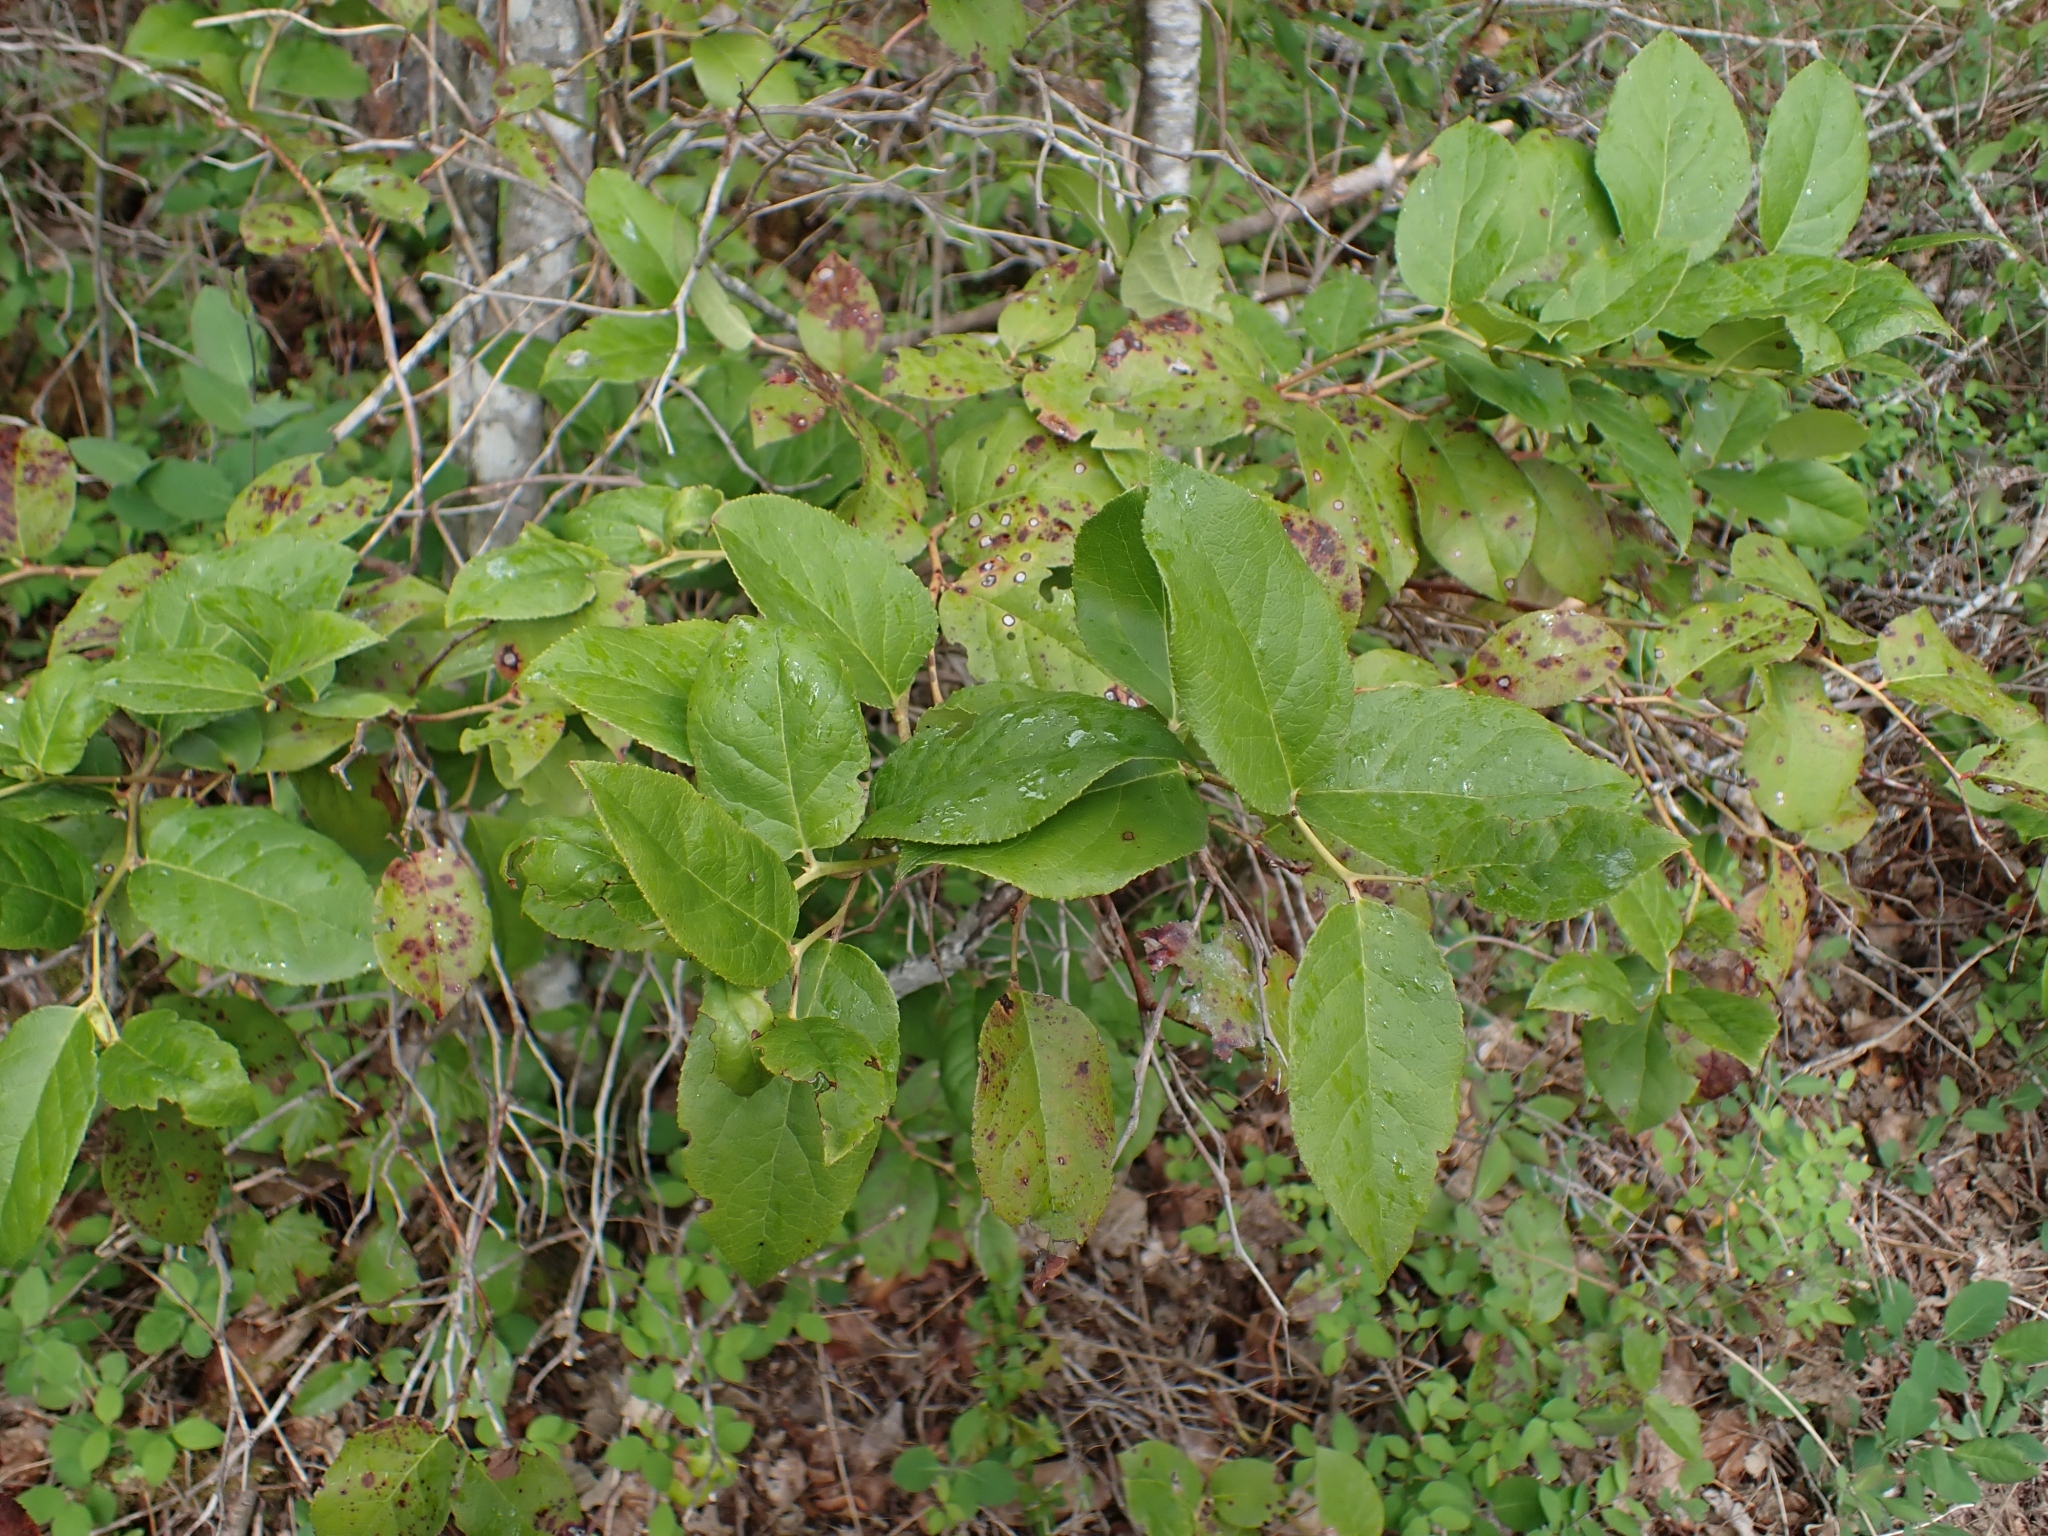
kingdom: Plantae
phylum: Tracheophyta
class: Magnoliopsida
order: Ericales
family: Ericaceae
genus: Gaultheria
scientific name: Gaultheria shallon
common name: Shallon
